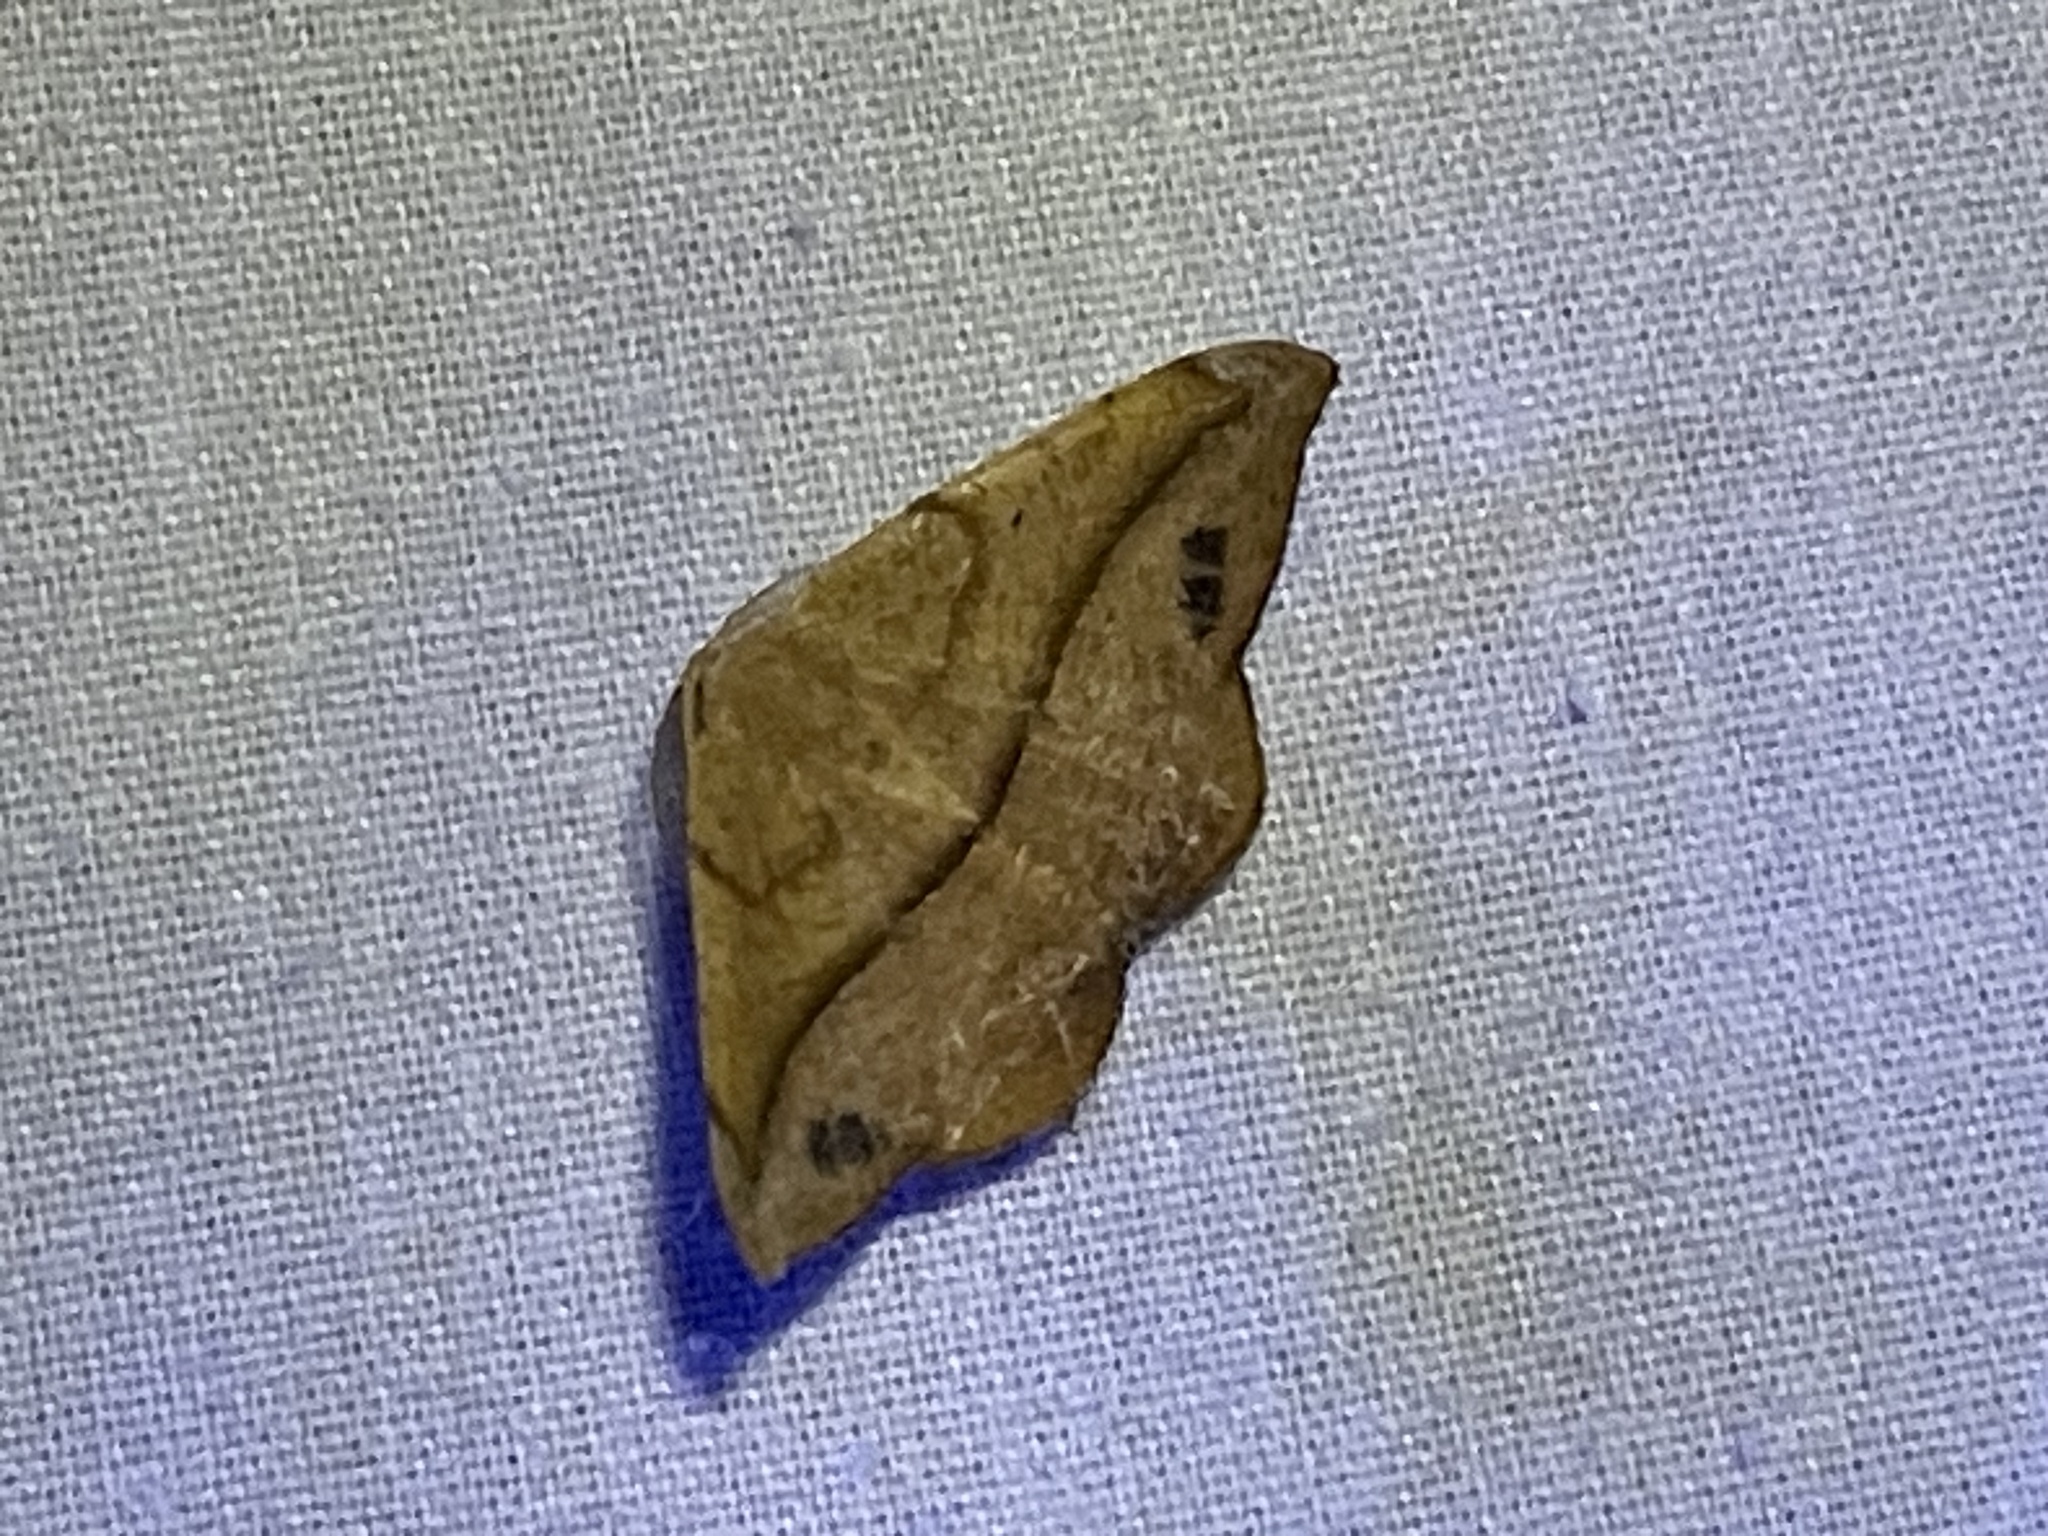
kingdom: Animalia
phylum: Arthropoda
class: Insecta
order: Lepidoptera
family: Geometridae
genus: Patalene
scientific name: Patalene olyzonaria
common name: Juniper geometer moth
